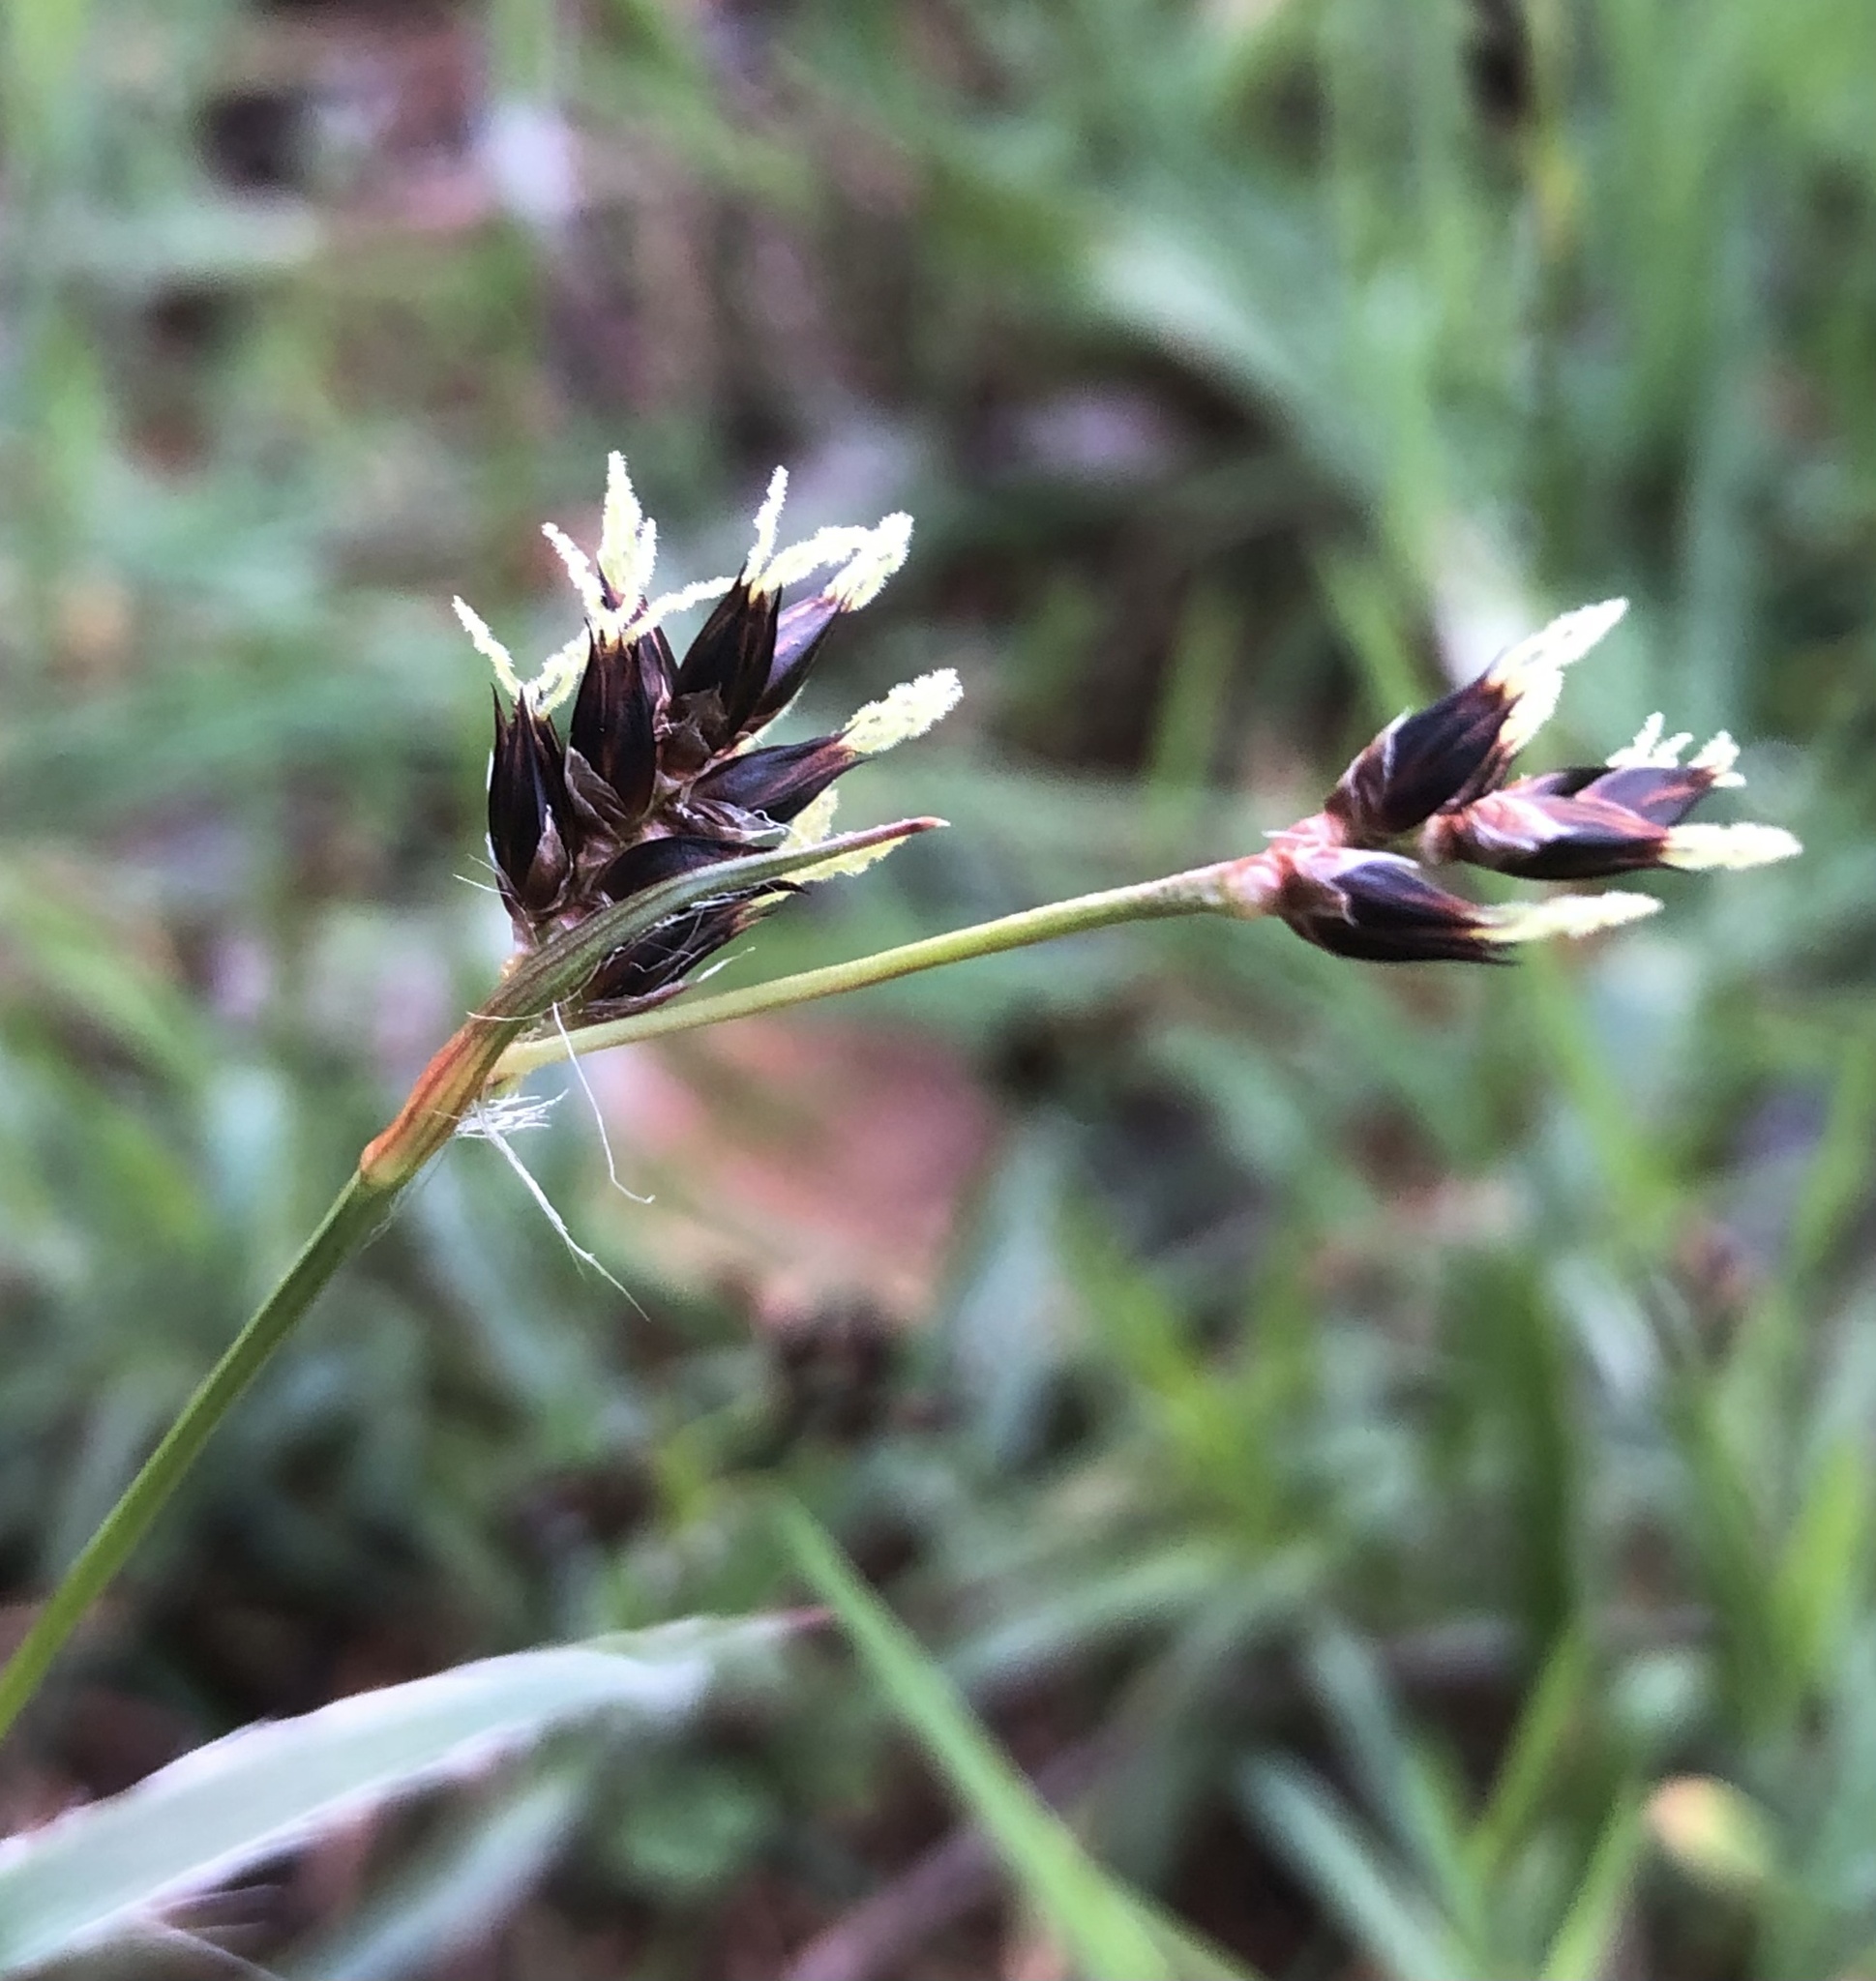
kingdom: Plantae
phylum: Tracheophyta
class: Liliopsida
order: Poales
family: Juncaceae
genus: Luzula
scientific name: Luzula campestris
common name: Field wood-rush
